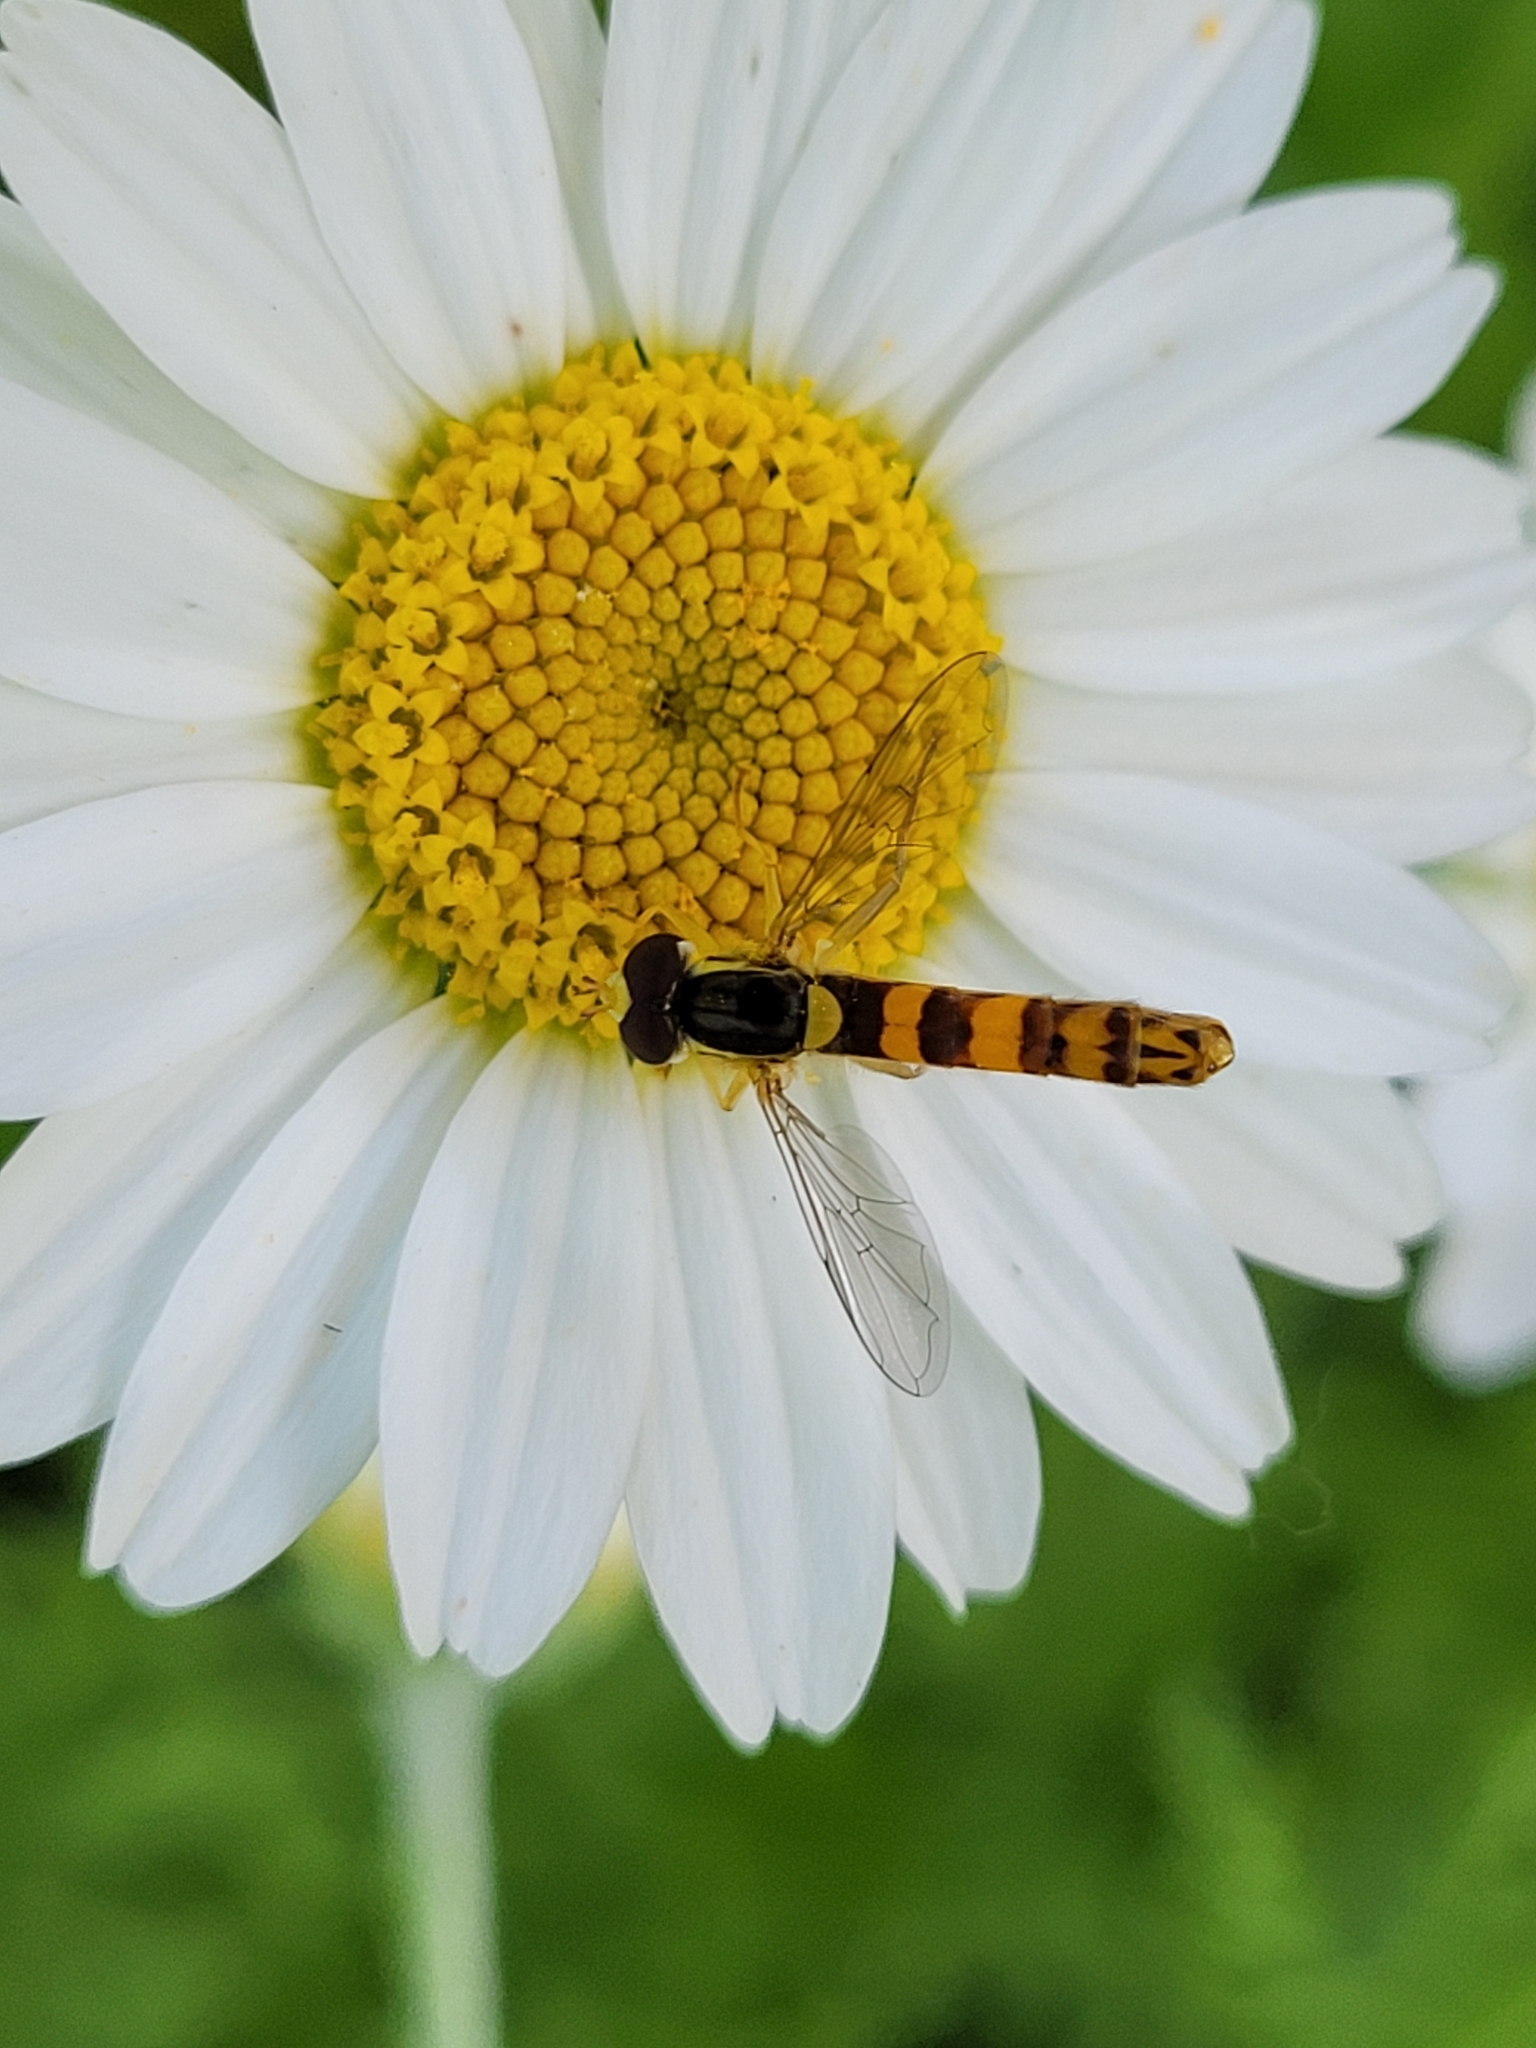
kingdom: Animalia
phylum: Arthropoda
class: Insecta
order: Diptera
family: Syrphidae
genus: Sphaerophoria
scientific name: Sphaerophoria scripta
